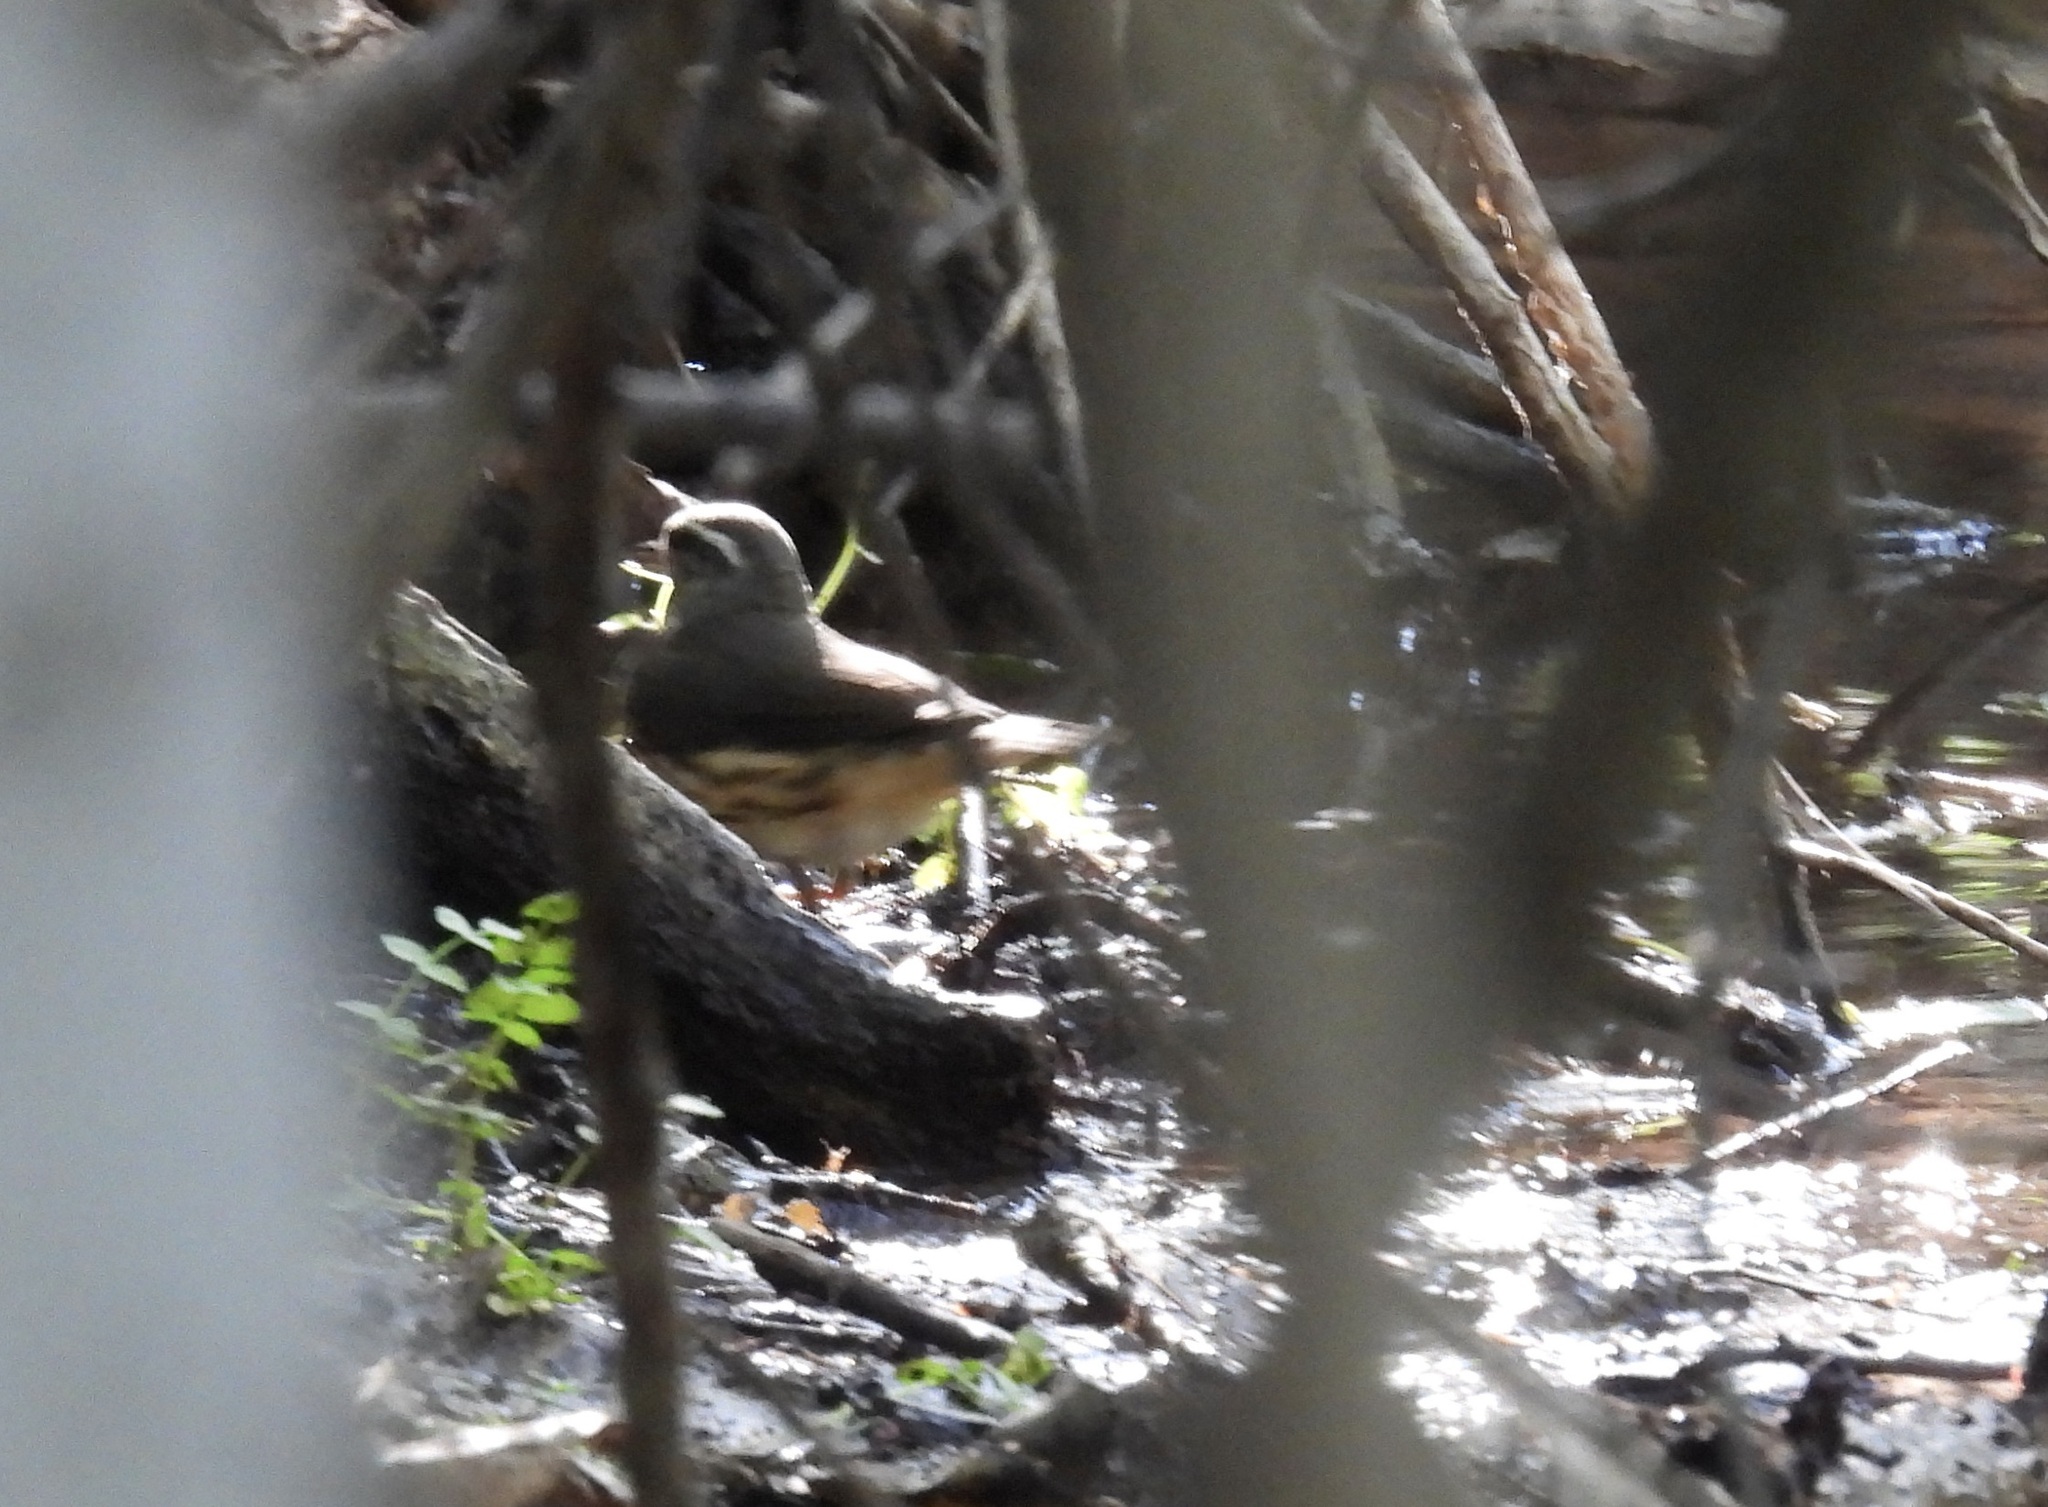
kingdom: Animalia
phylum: Chordata
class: Aves
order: Passeriformes
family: Parulidae
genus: Parkesia
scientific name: Parkesia motacilla
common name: Louisiana waterthrush
